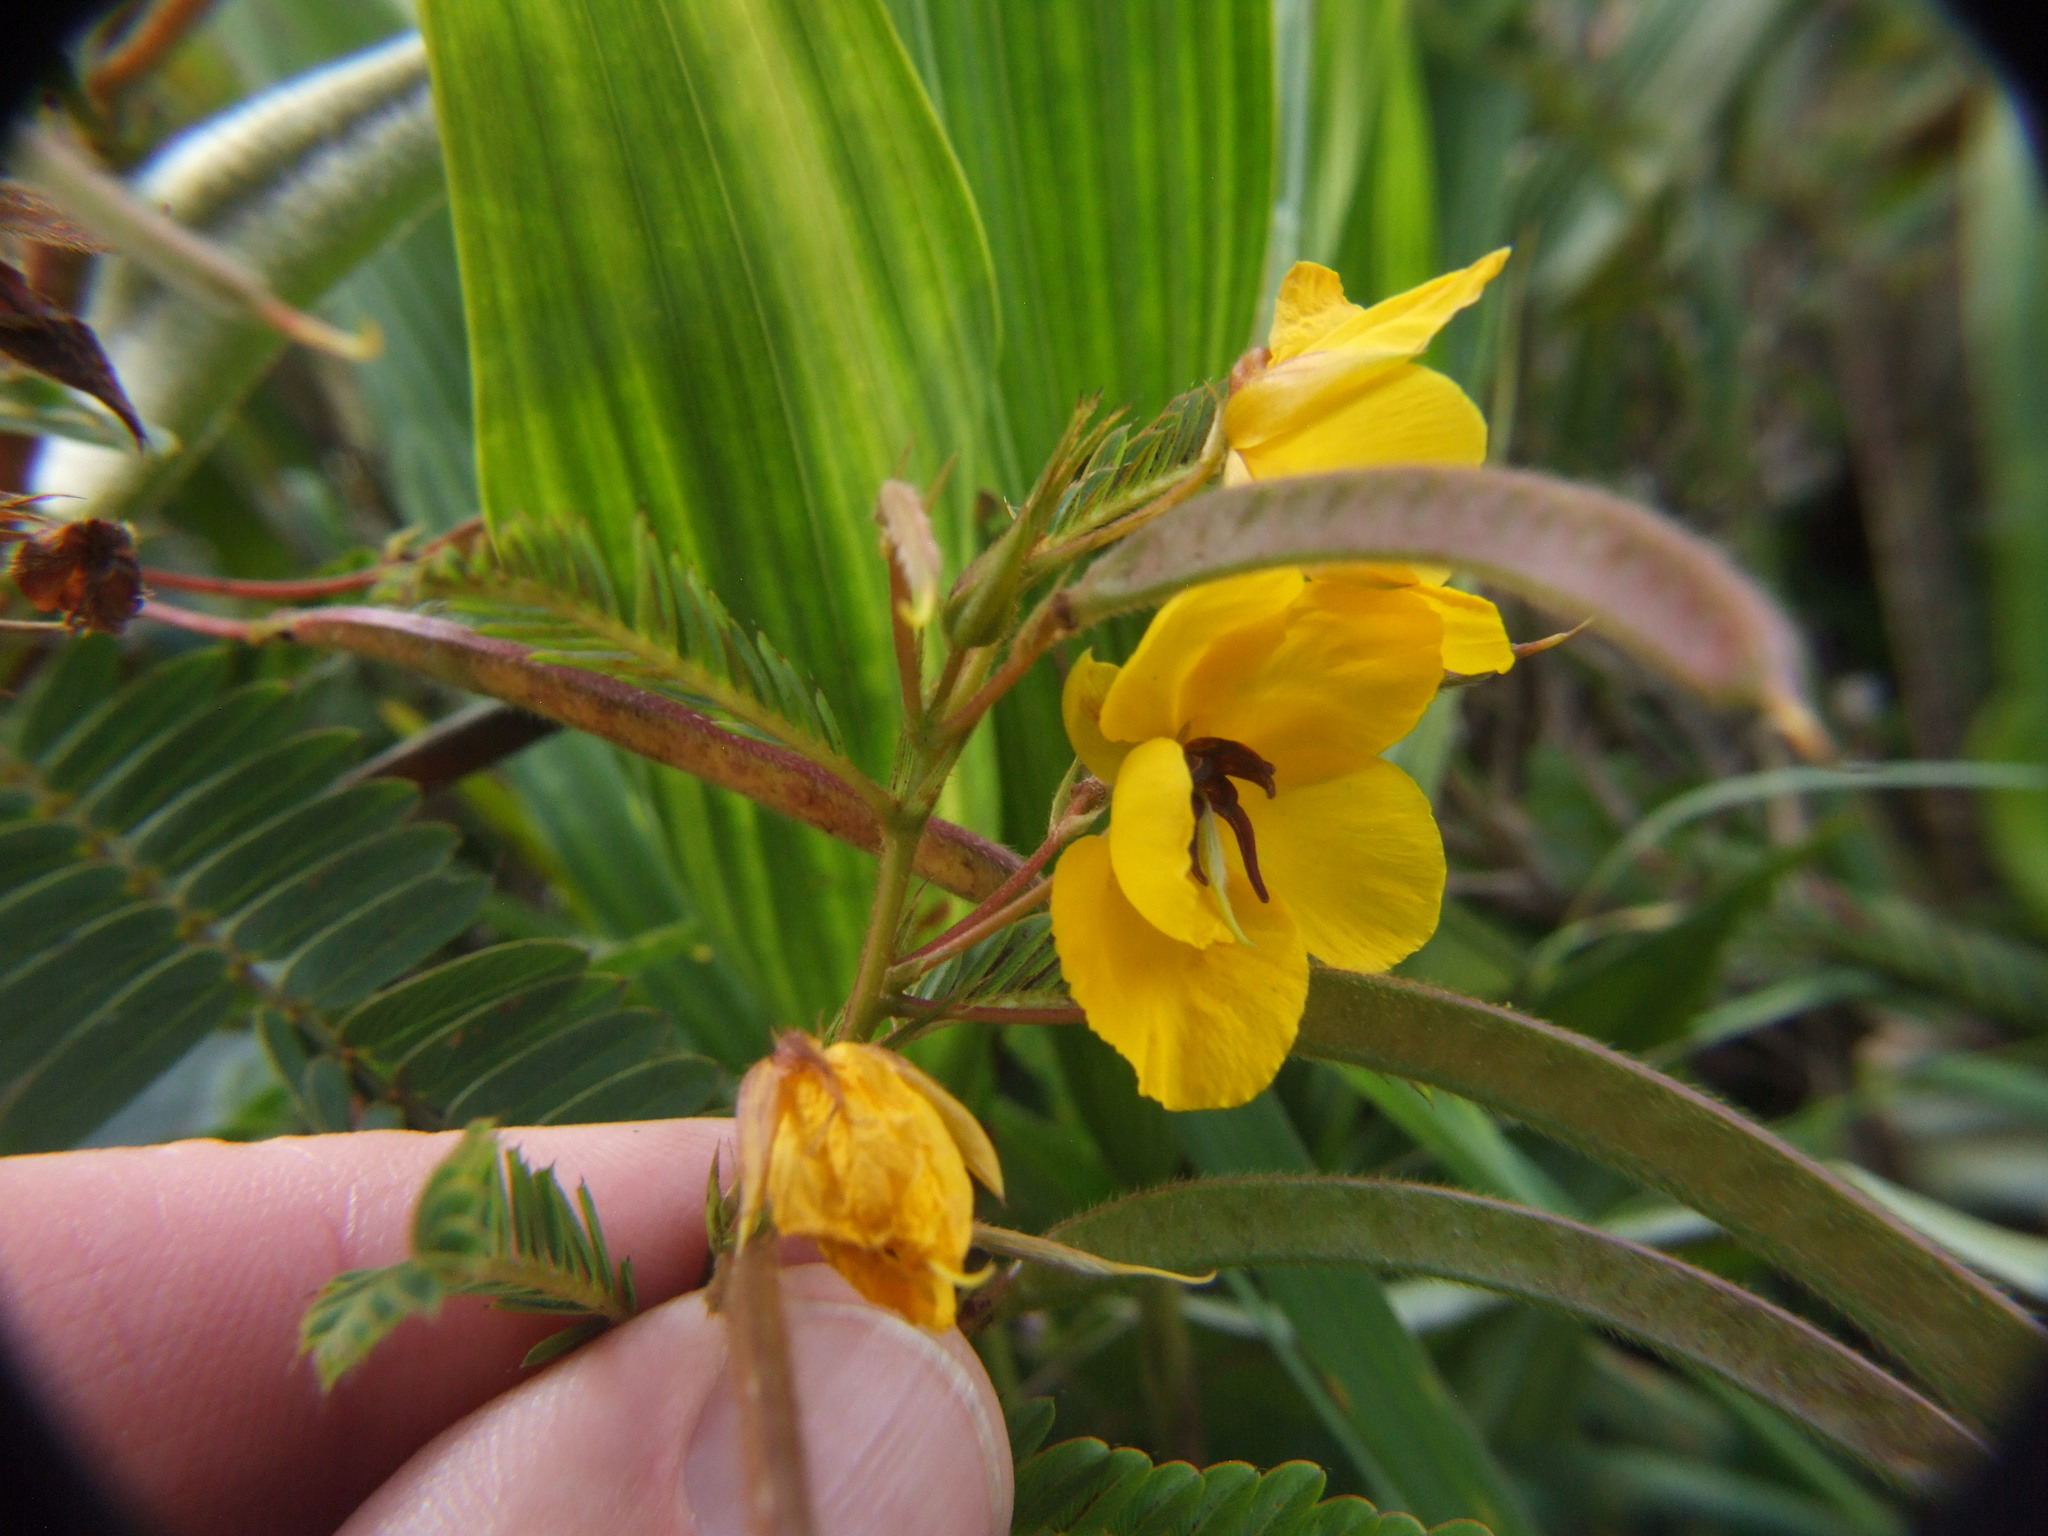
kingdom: Plantae
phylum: Tracheophyta
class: Magnoliopsida
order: Fabales
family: Fabaceae
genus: Chamaecrista
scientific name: Chamaecrista glandulosa
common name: Wild peas
